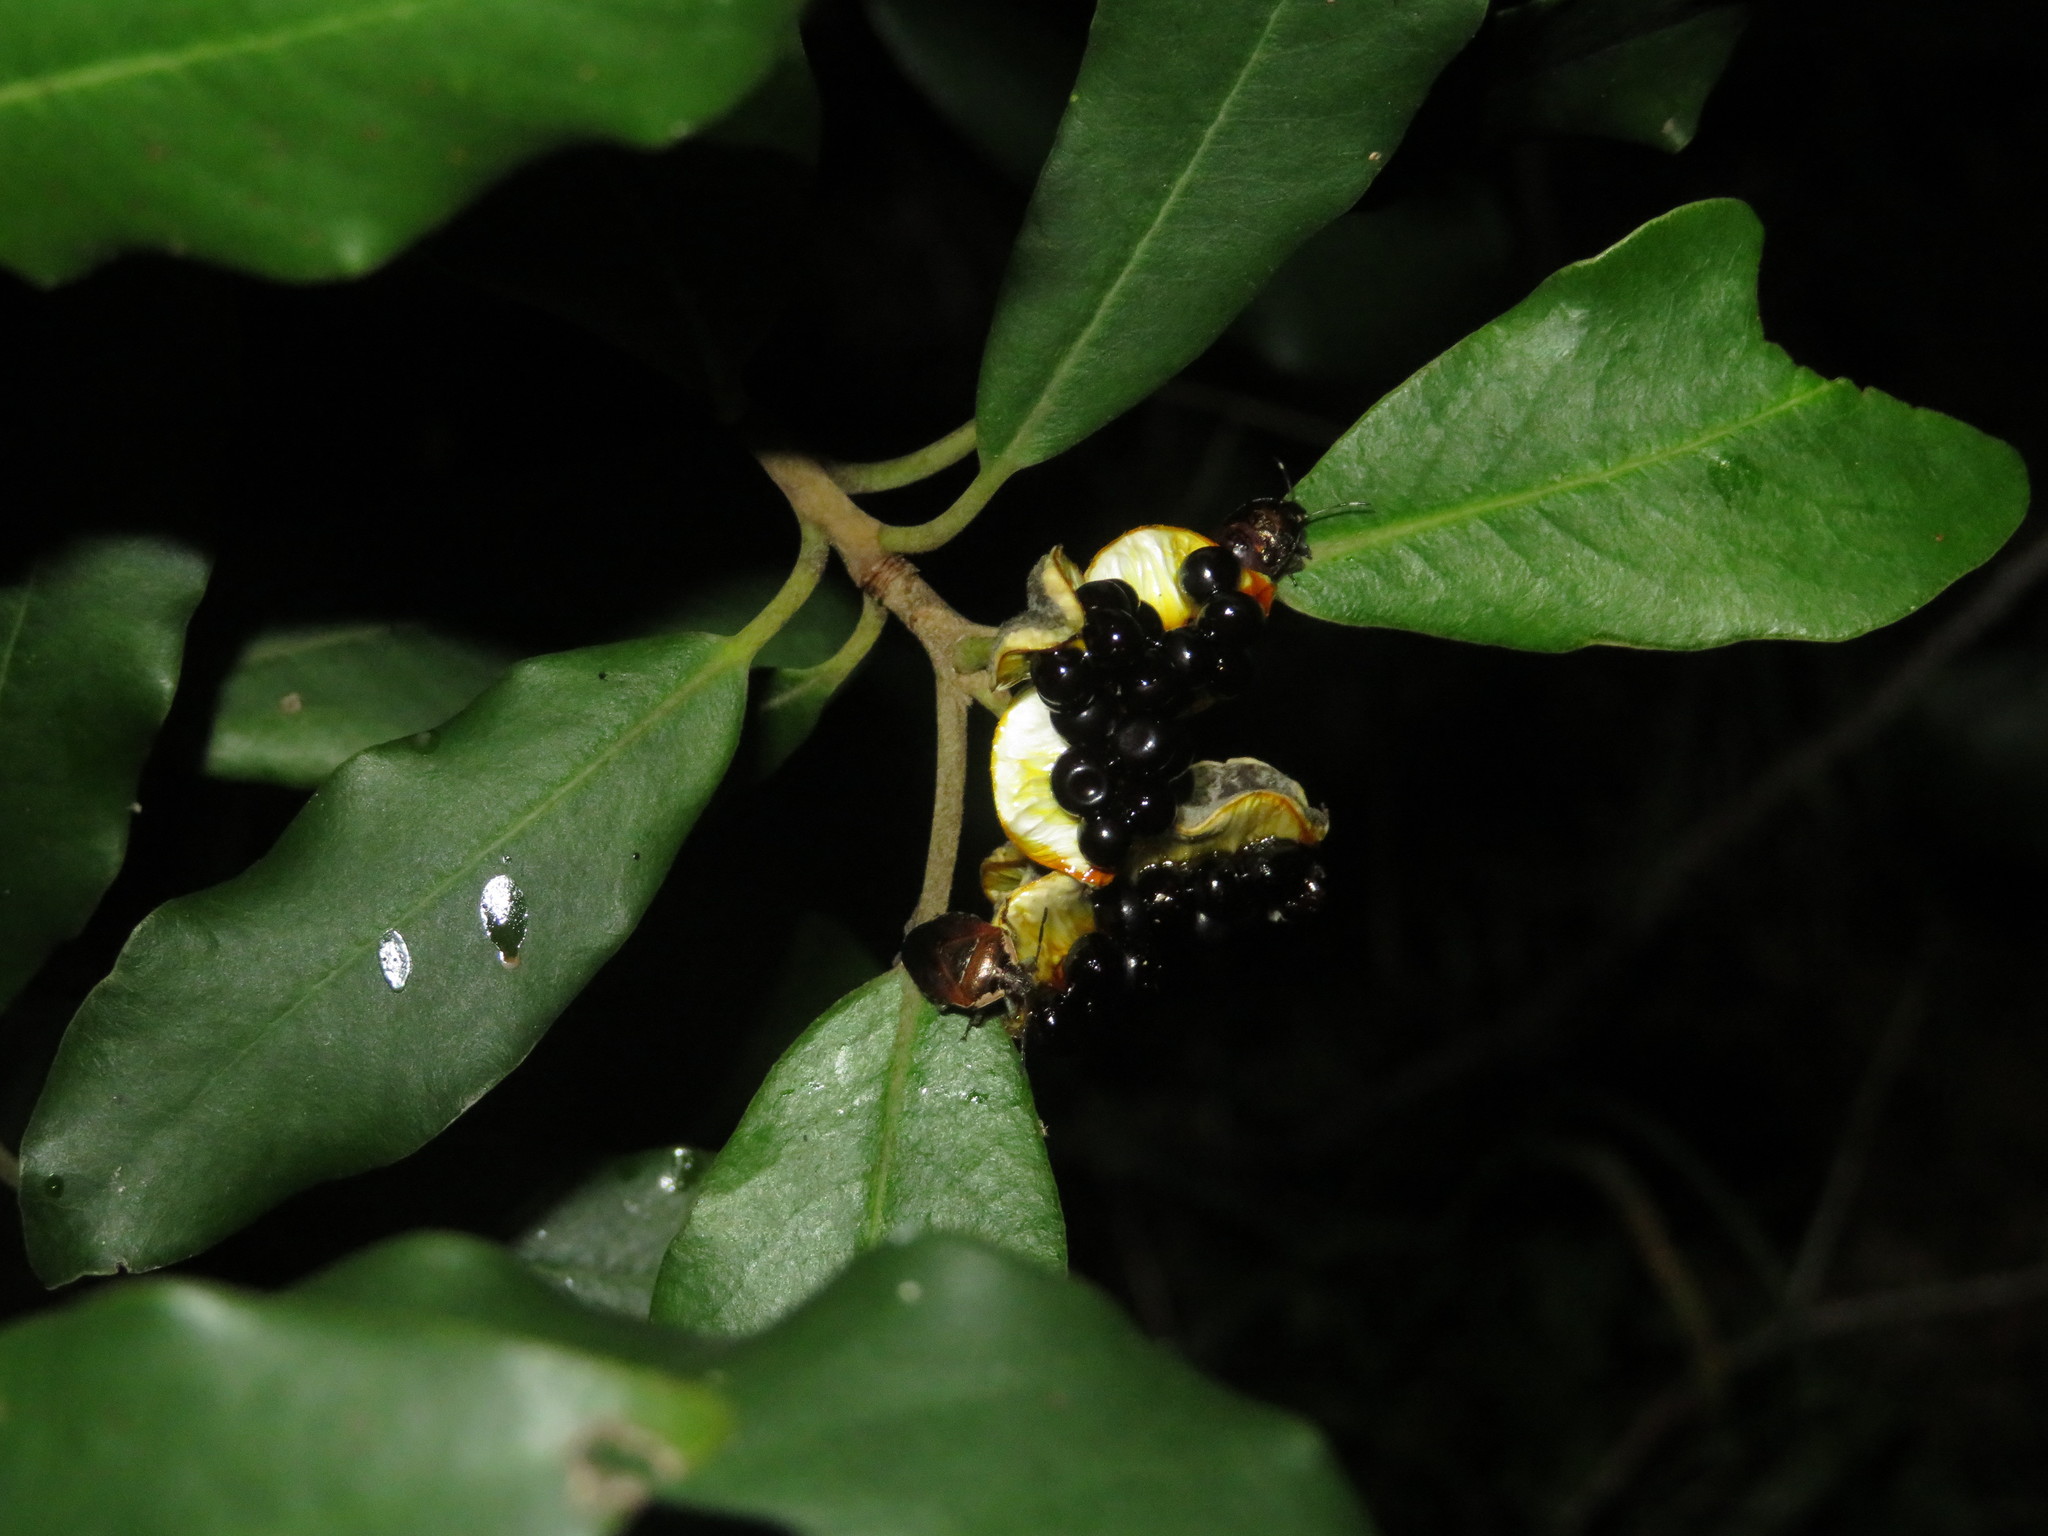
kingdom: Animalia
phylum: Arthropoda
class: Insecta
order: Hemiptera
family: Pentatomidae
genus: Monteithiella
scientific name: Monteithiella
